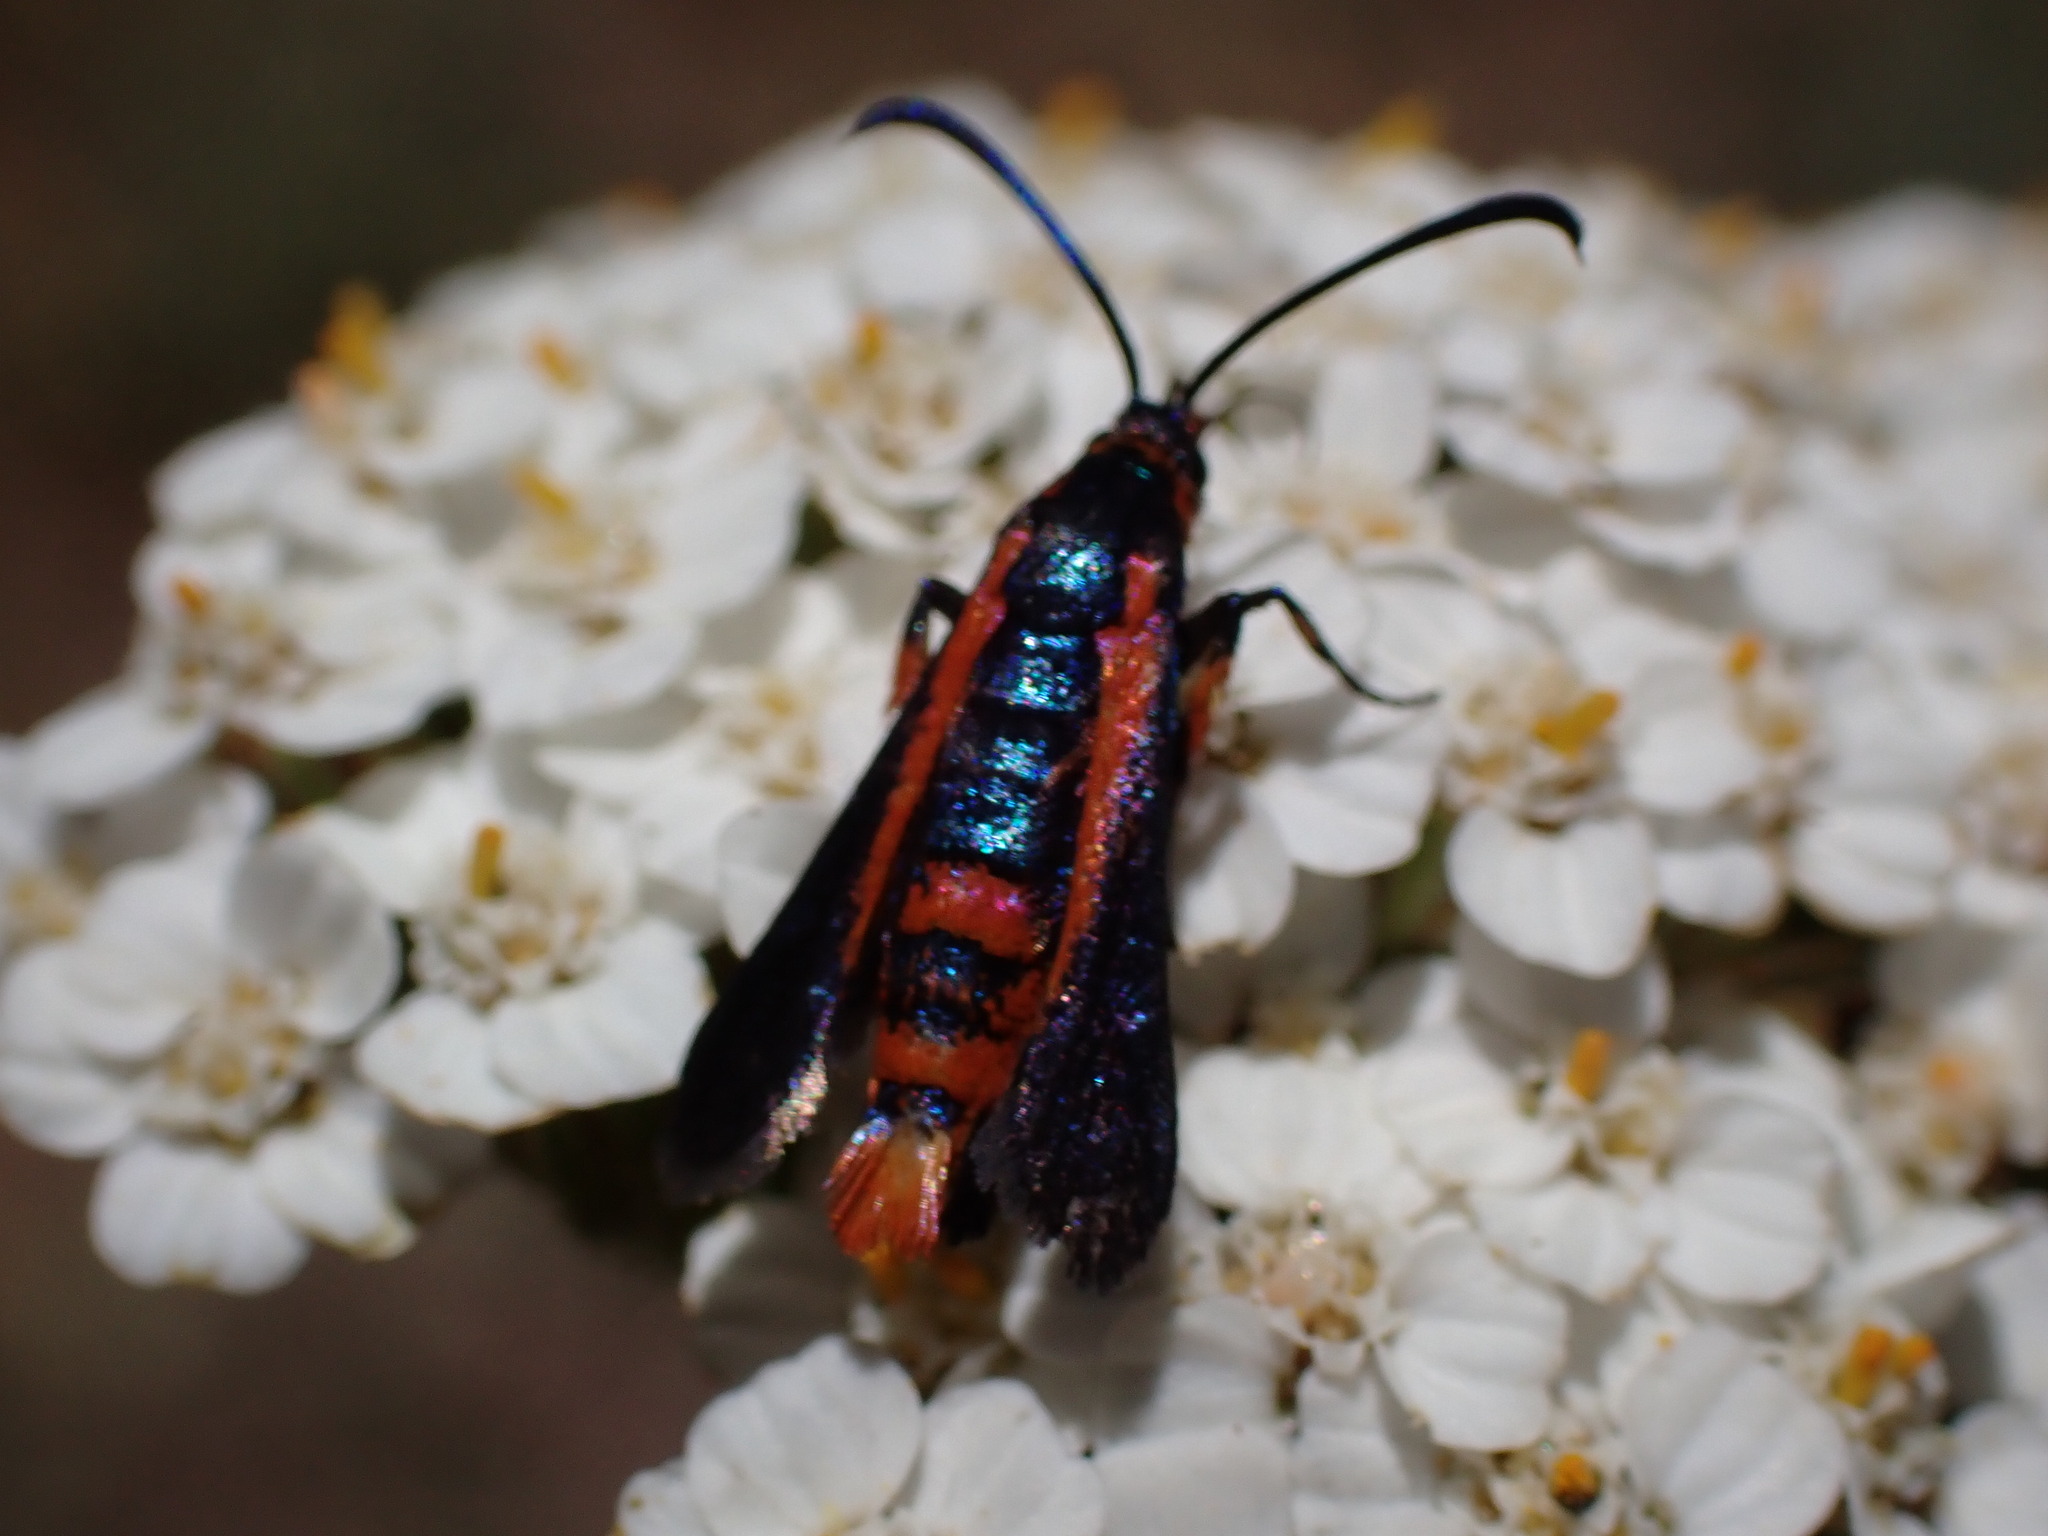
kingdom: Animalia
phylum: Arthropoda
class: Insecta
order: Lepidoptera
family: Sesiidae
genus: Synanthedon
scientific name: Synanthedon polygoni
